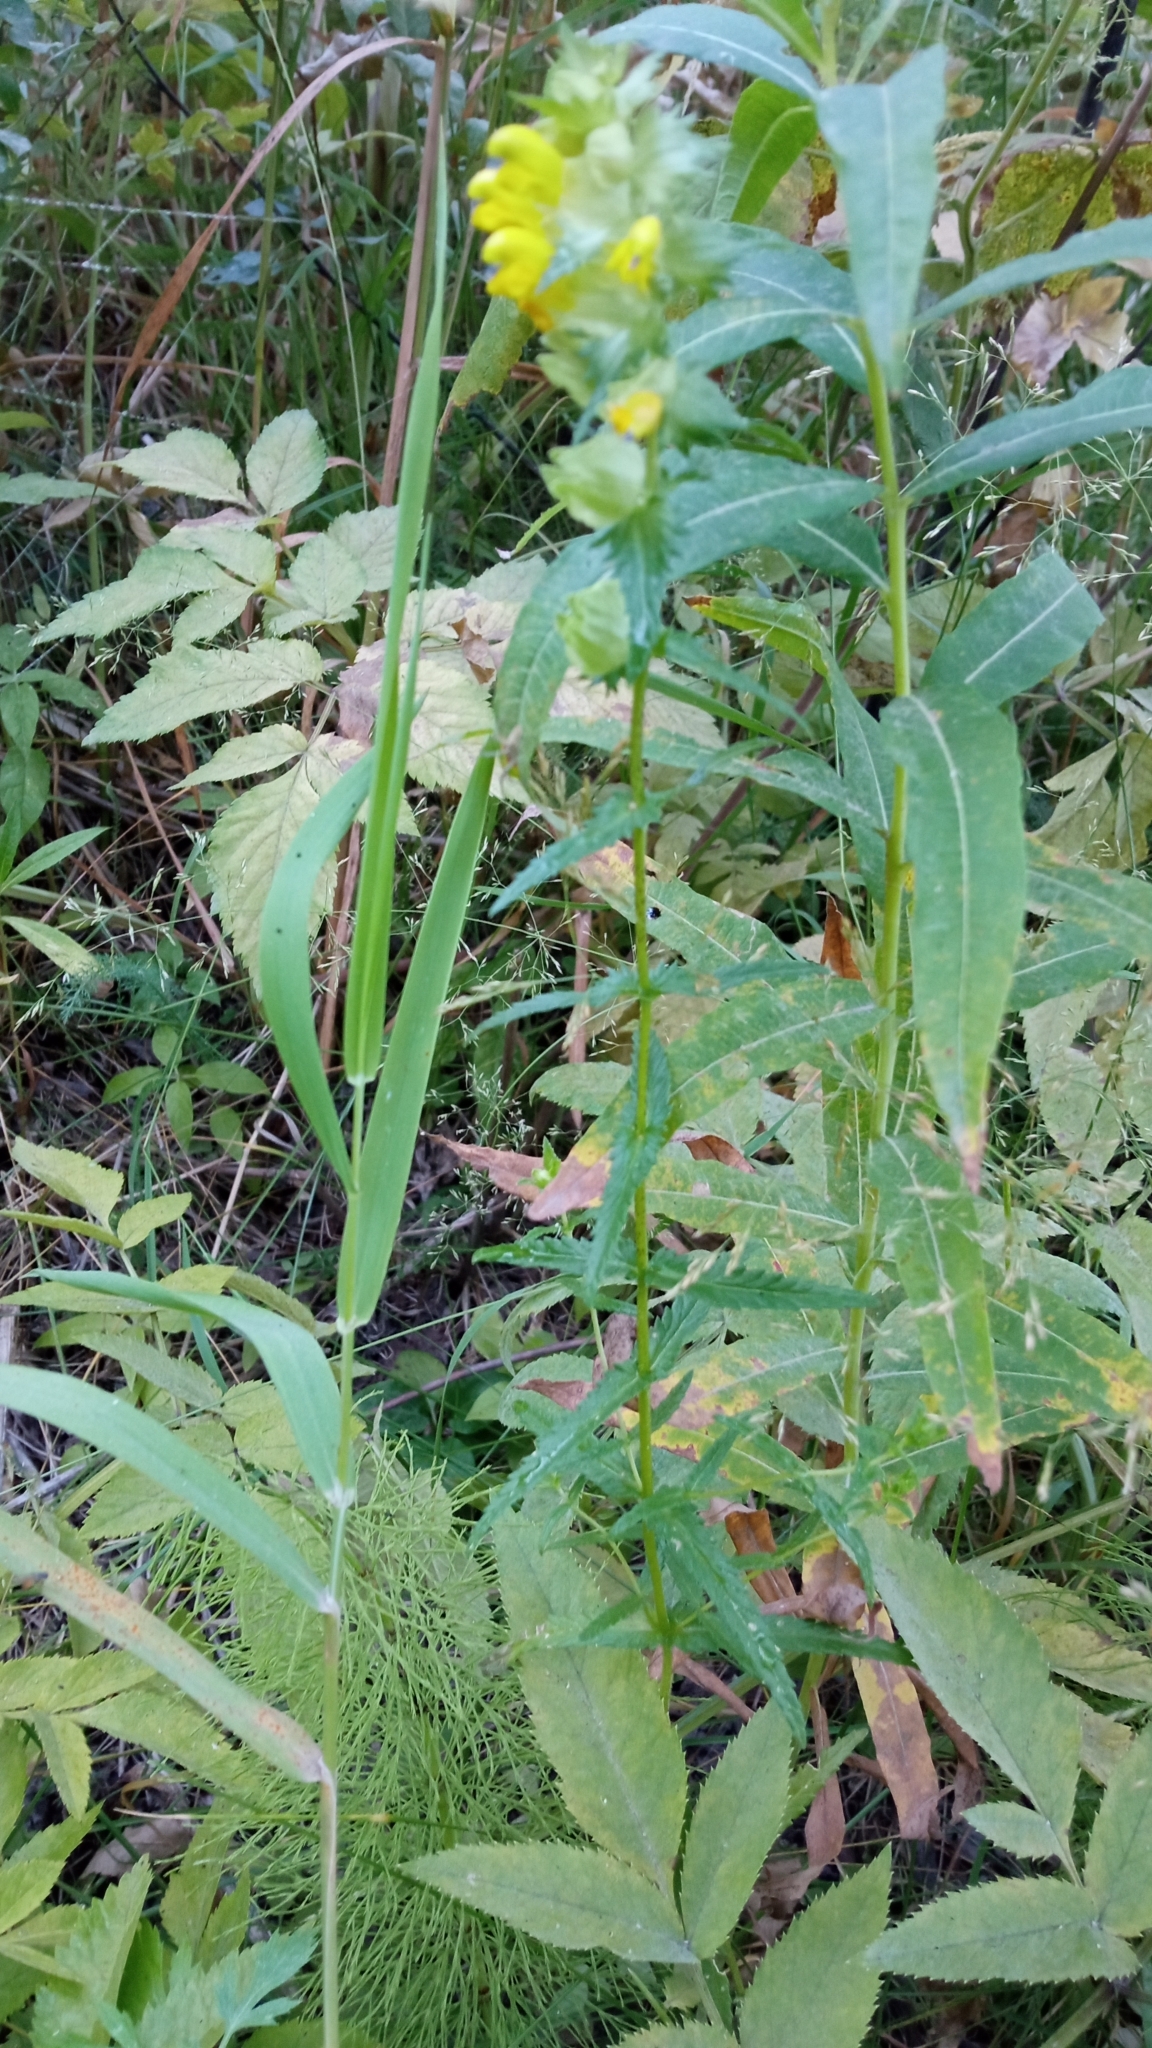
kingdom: Plantae
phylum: Tracheophyta
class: Magnoliopsida
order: Lamiales
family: Orobanchaceae
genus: Rhinanthus
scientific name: Rhinanthus serotinus
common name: Late-flowering yellow rattle
